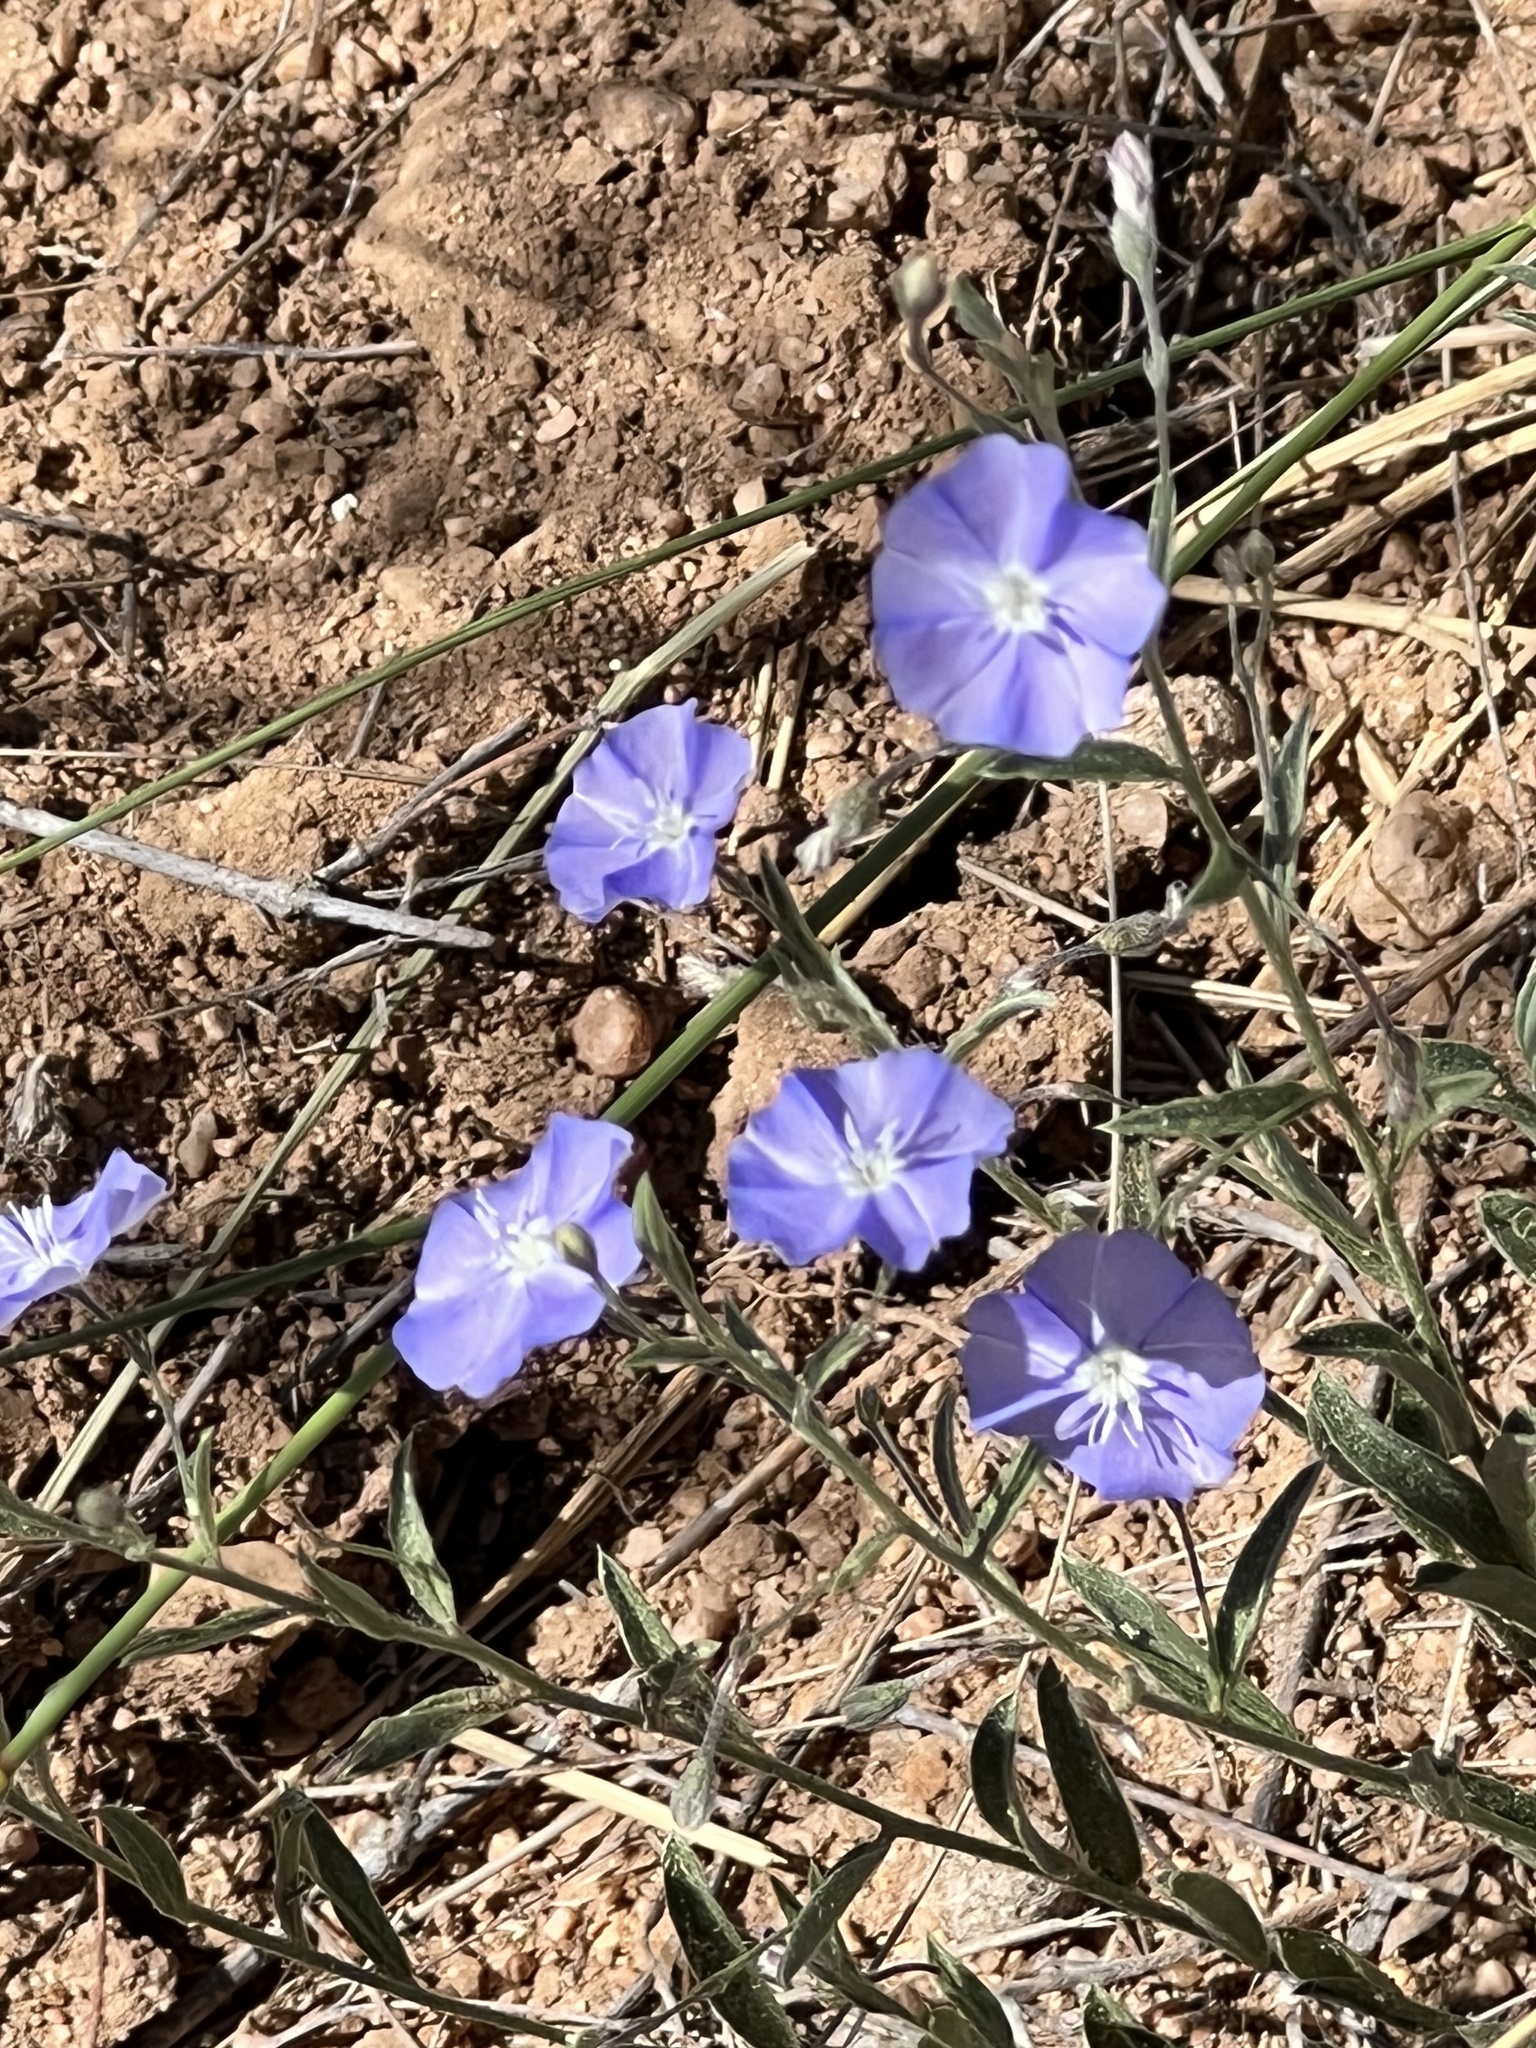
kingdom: Plantae
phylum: Tracheophyta
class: Magnoliopsida
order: Solanales
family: Convolvulaceae
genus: Evolvulus
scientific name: Evolvulus arizonicus
